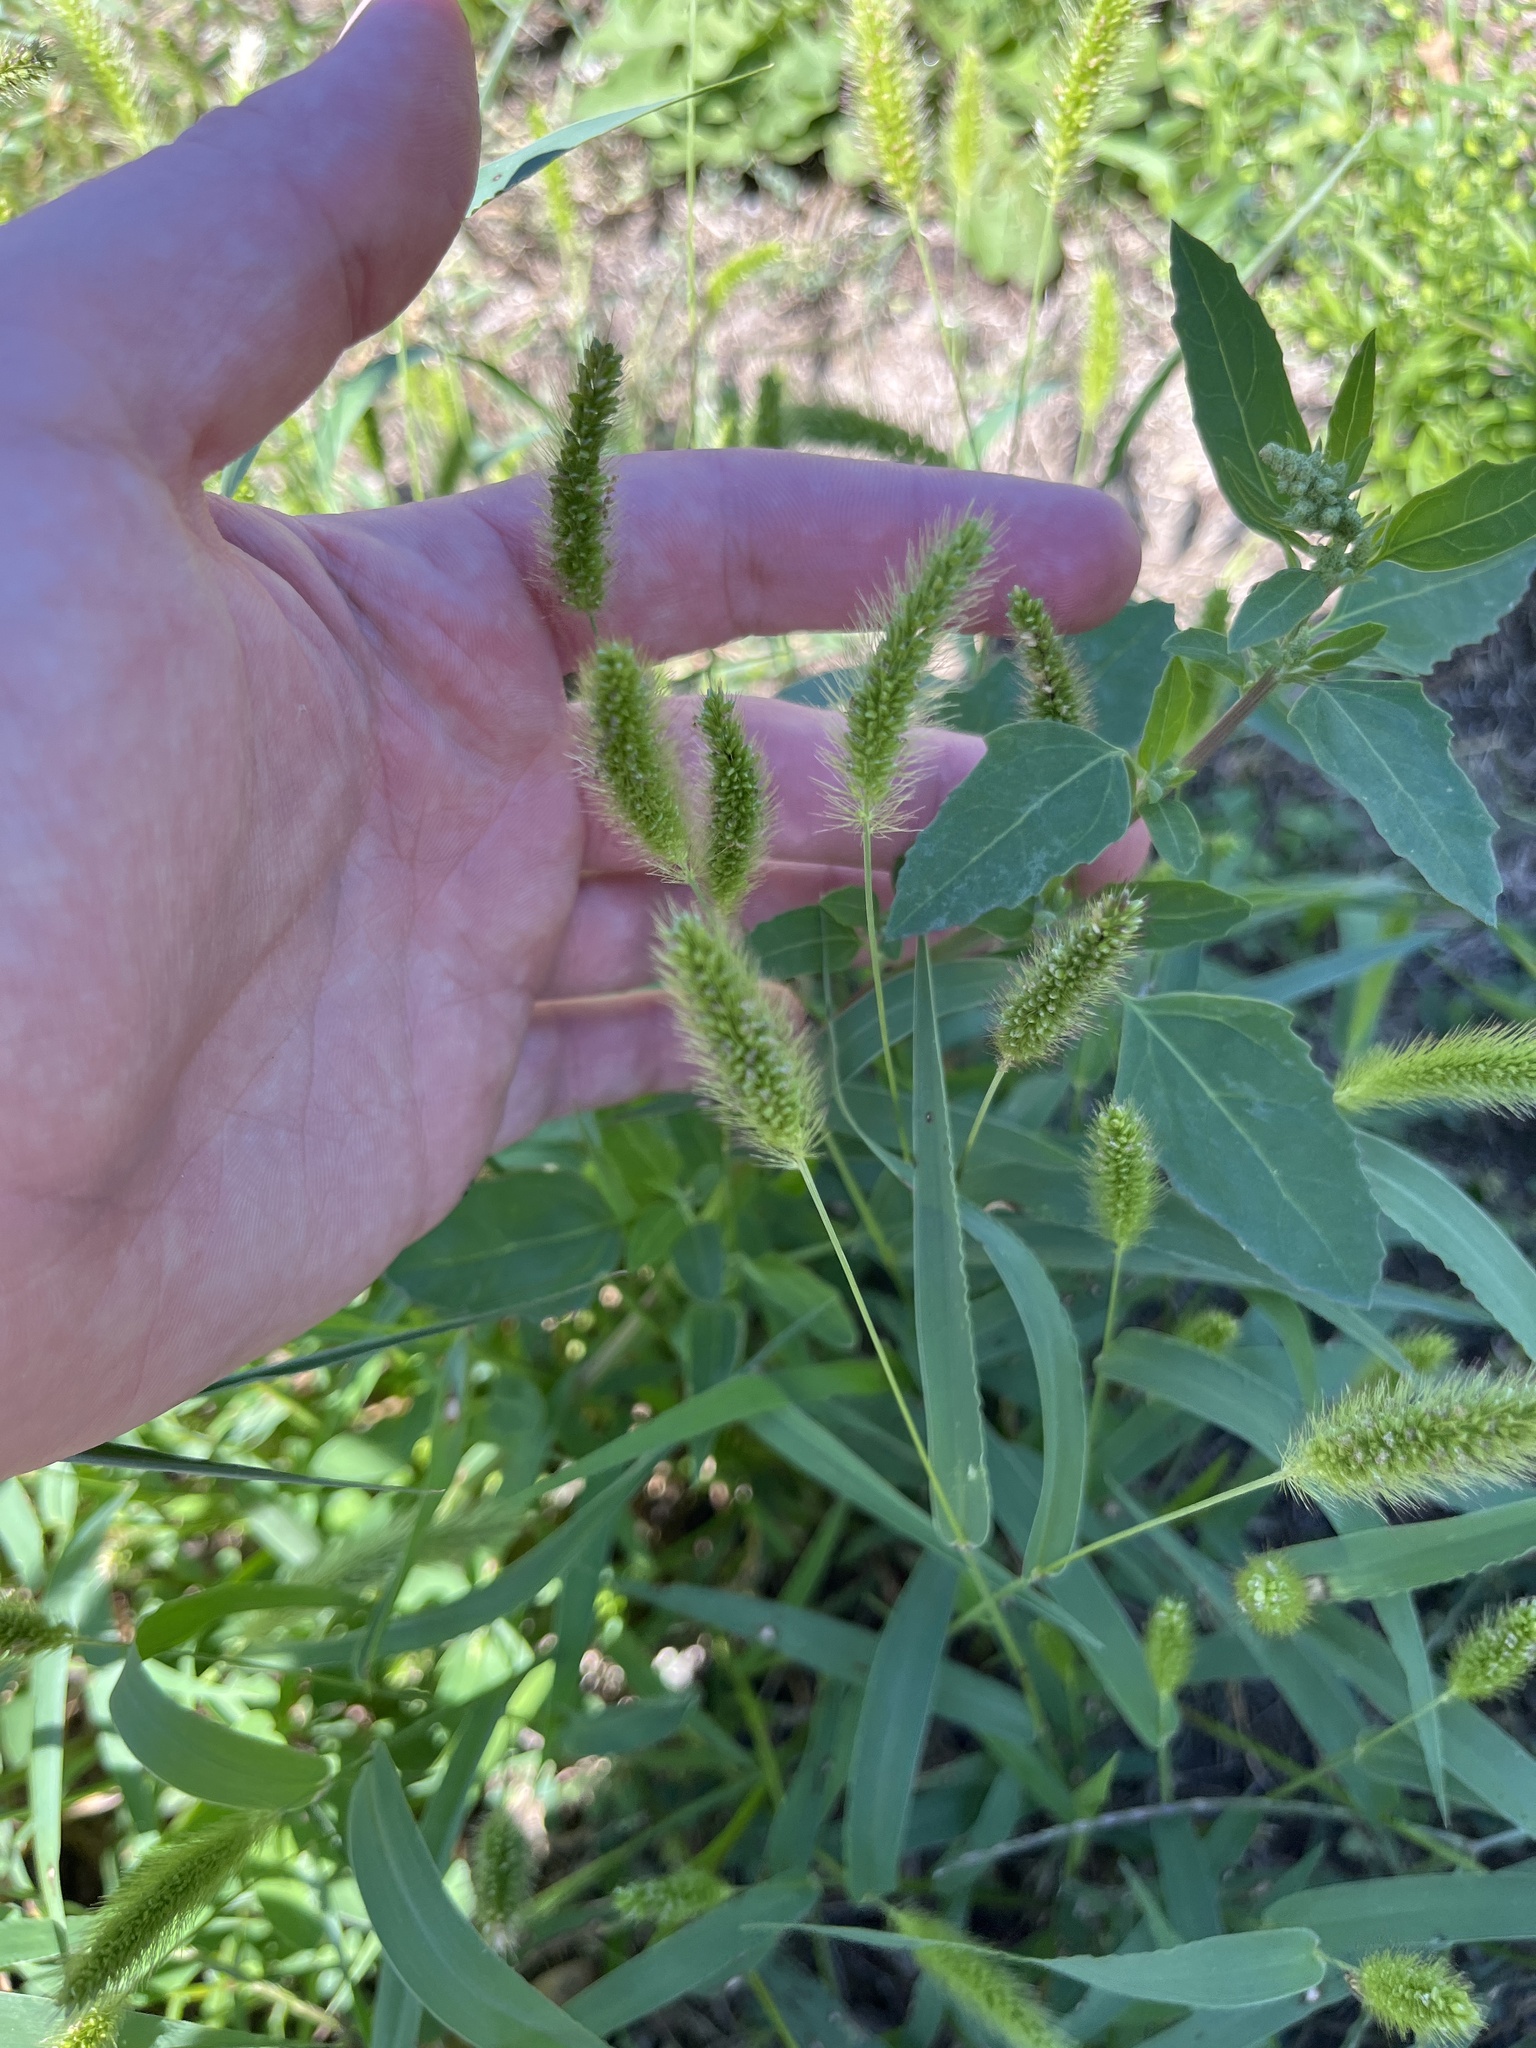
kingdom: Plantae
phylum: Tracheophyta
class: Liliopsida
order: Poales
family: Poaceae
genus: Setaria
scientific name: Setaria viridis
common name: Green bristlegrass
